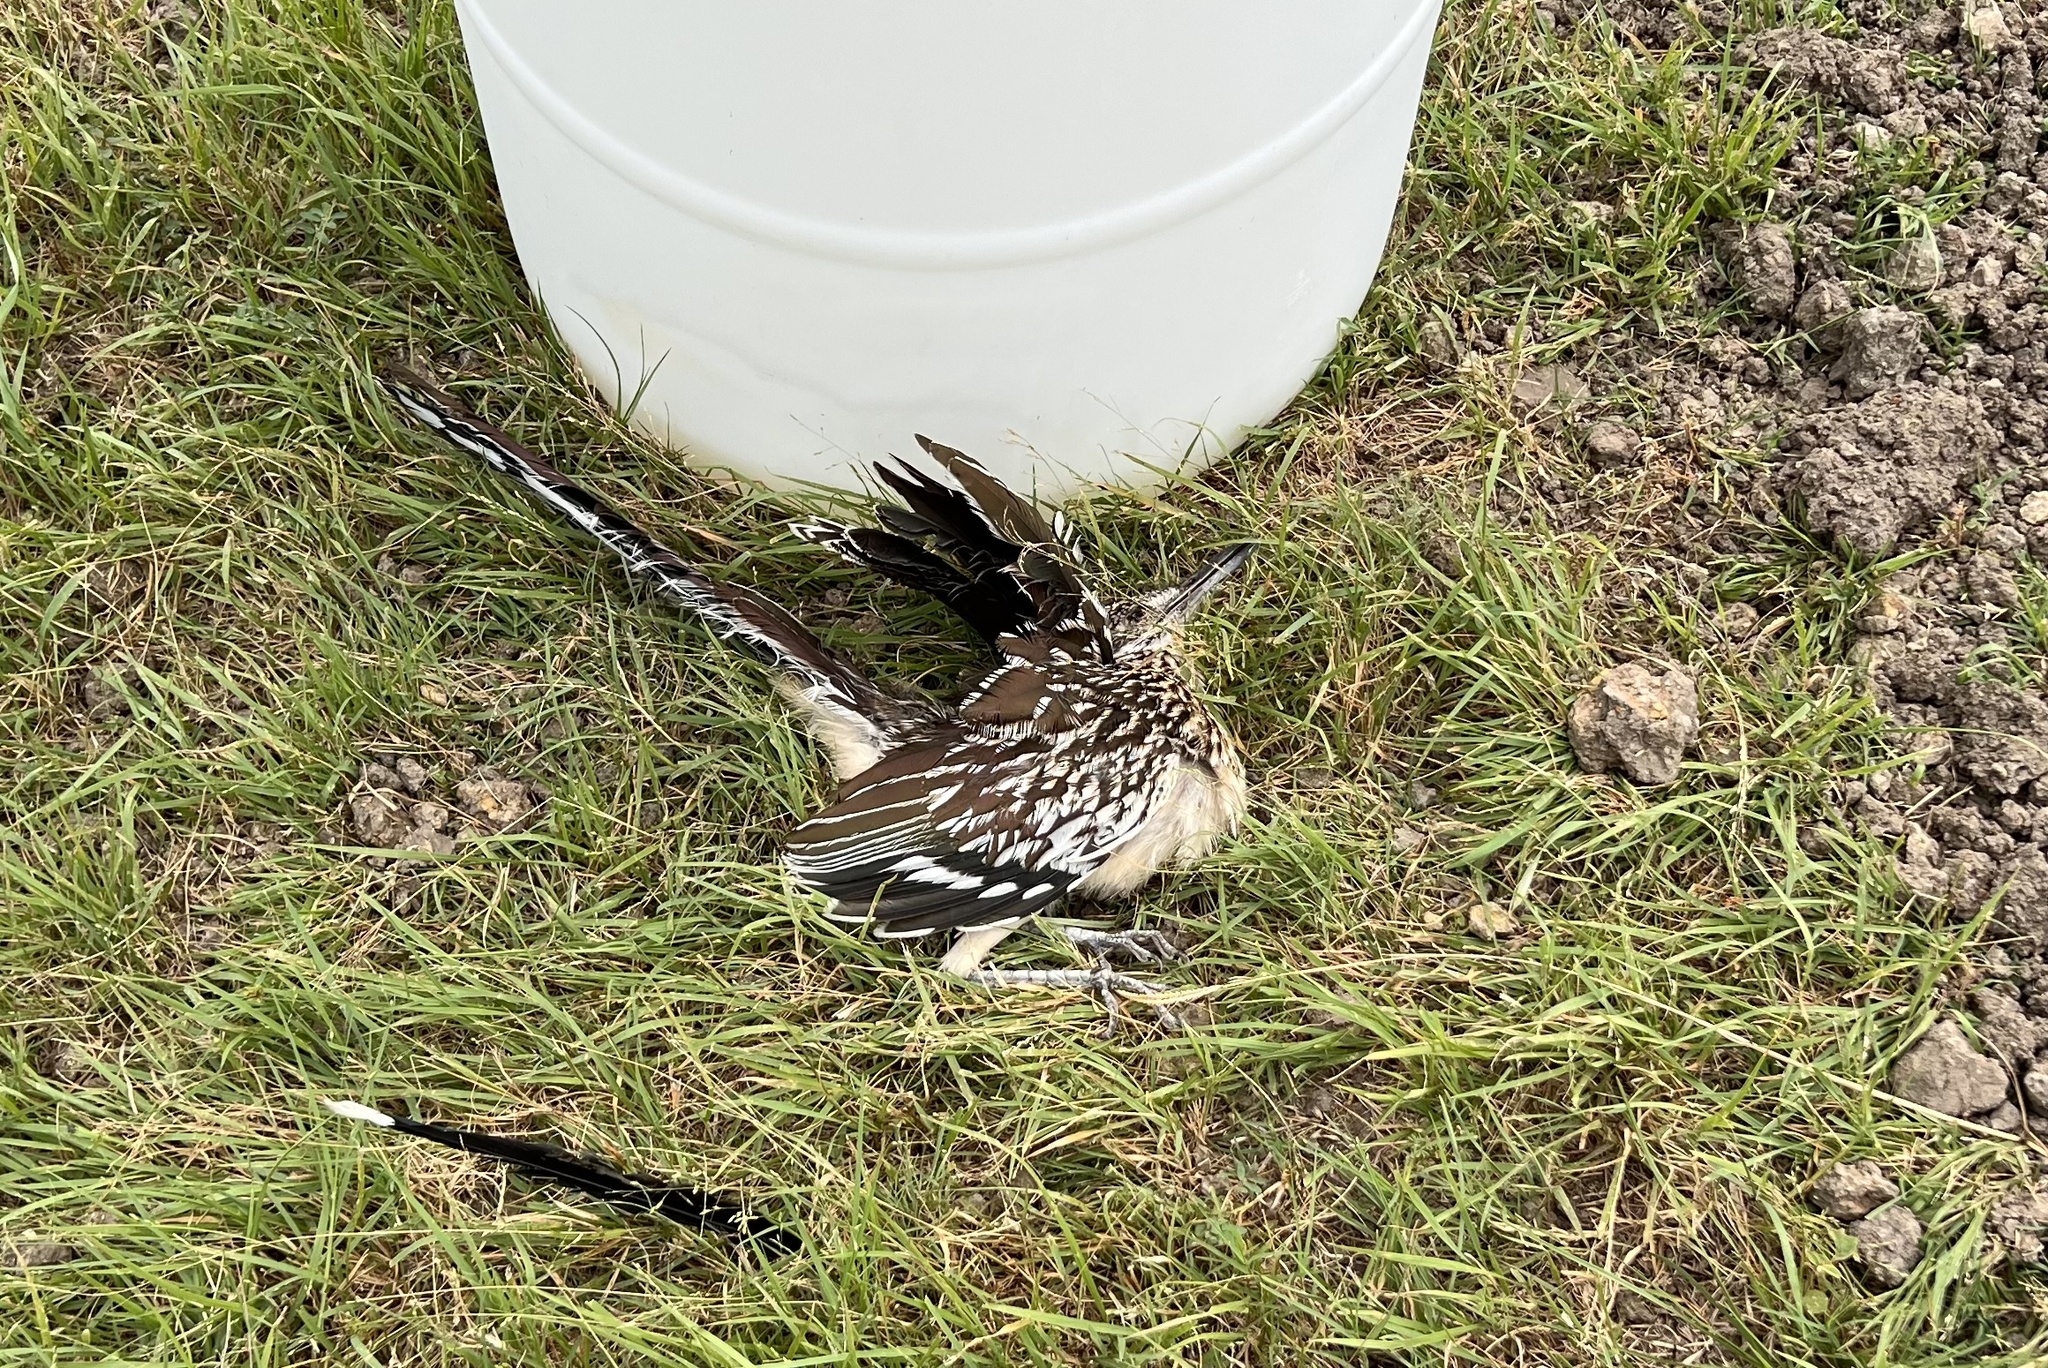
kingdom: Animalia
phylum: Chordata
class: Aves
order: Cuculiformes
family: Cuculidae
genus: Geococcyx
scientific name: Geococcyx californianus
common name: Greater roadrunner
